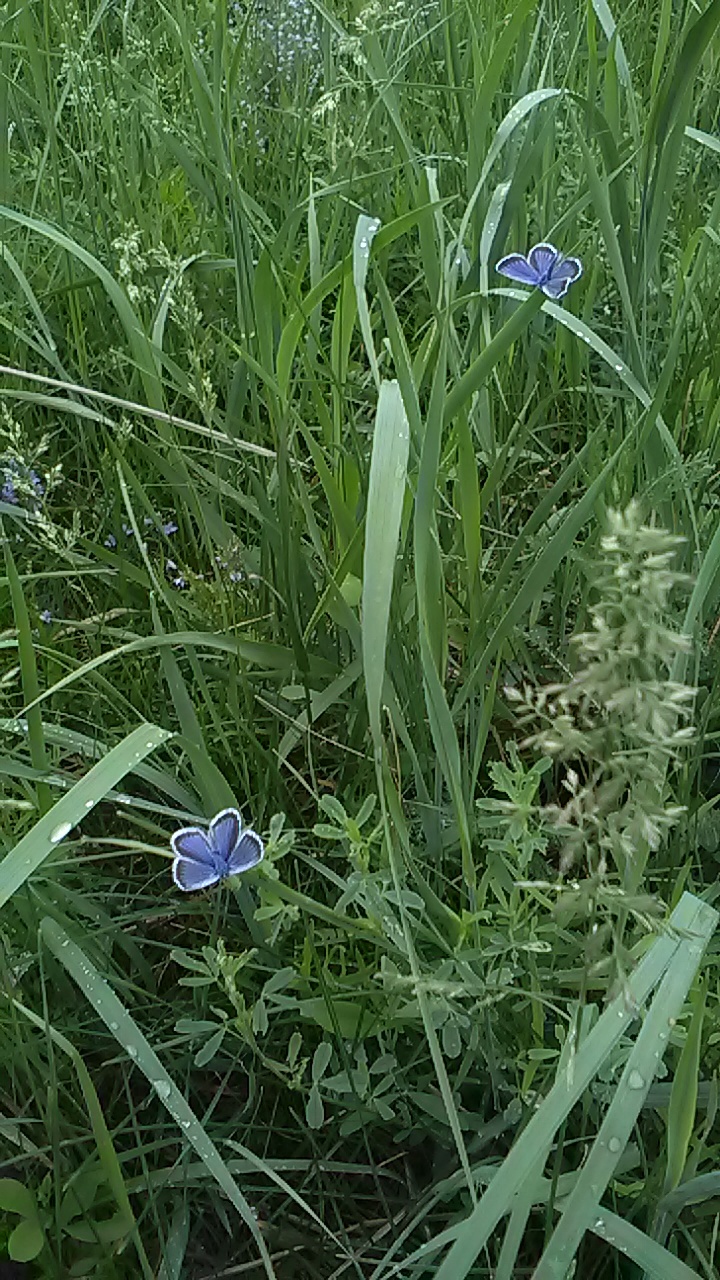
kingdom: Animalia
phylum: Arthropoda
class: Insecta
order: Lepidoptera
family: Lycaenidae
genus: Plebejus
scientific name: Plebejus argus
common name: Silver-studded blue
